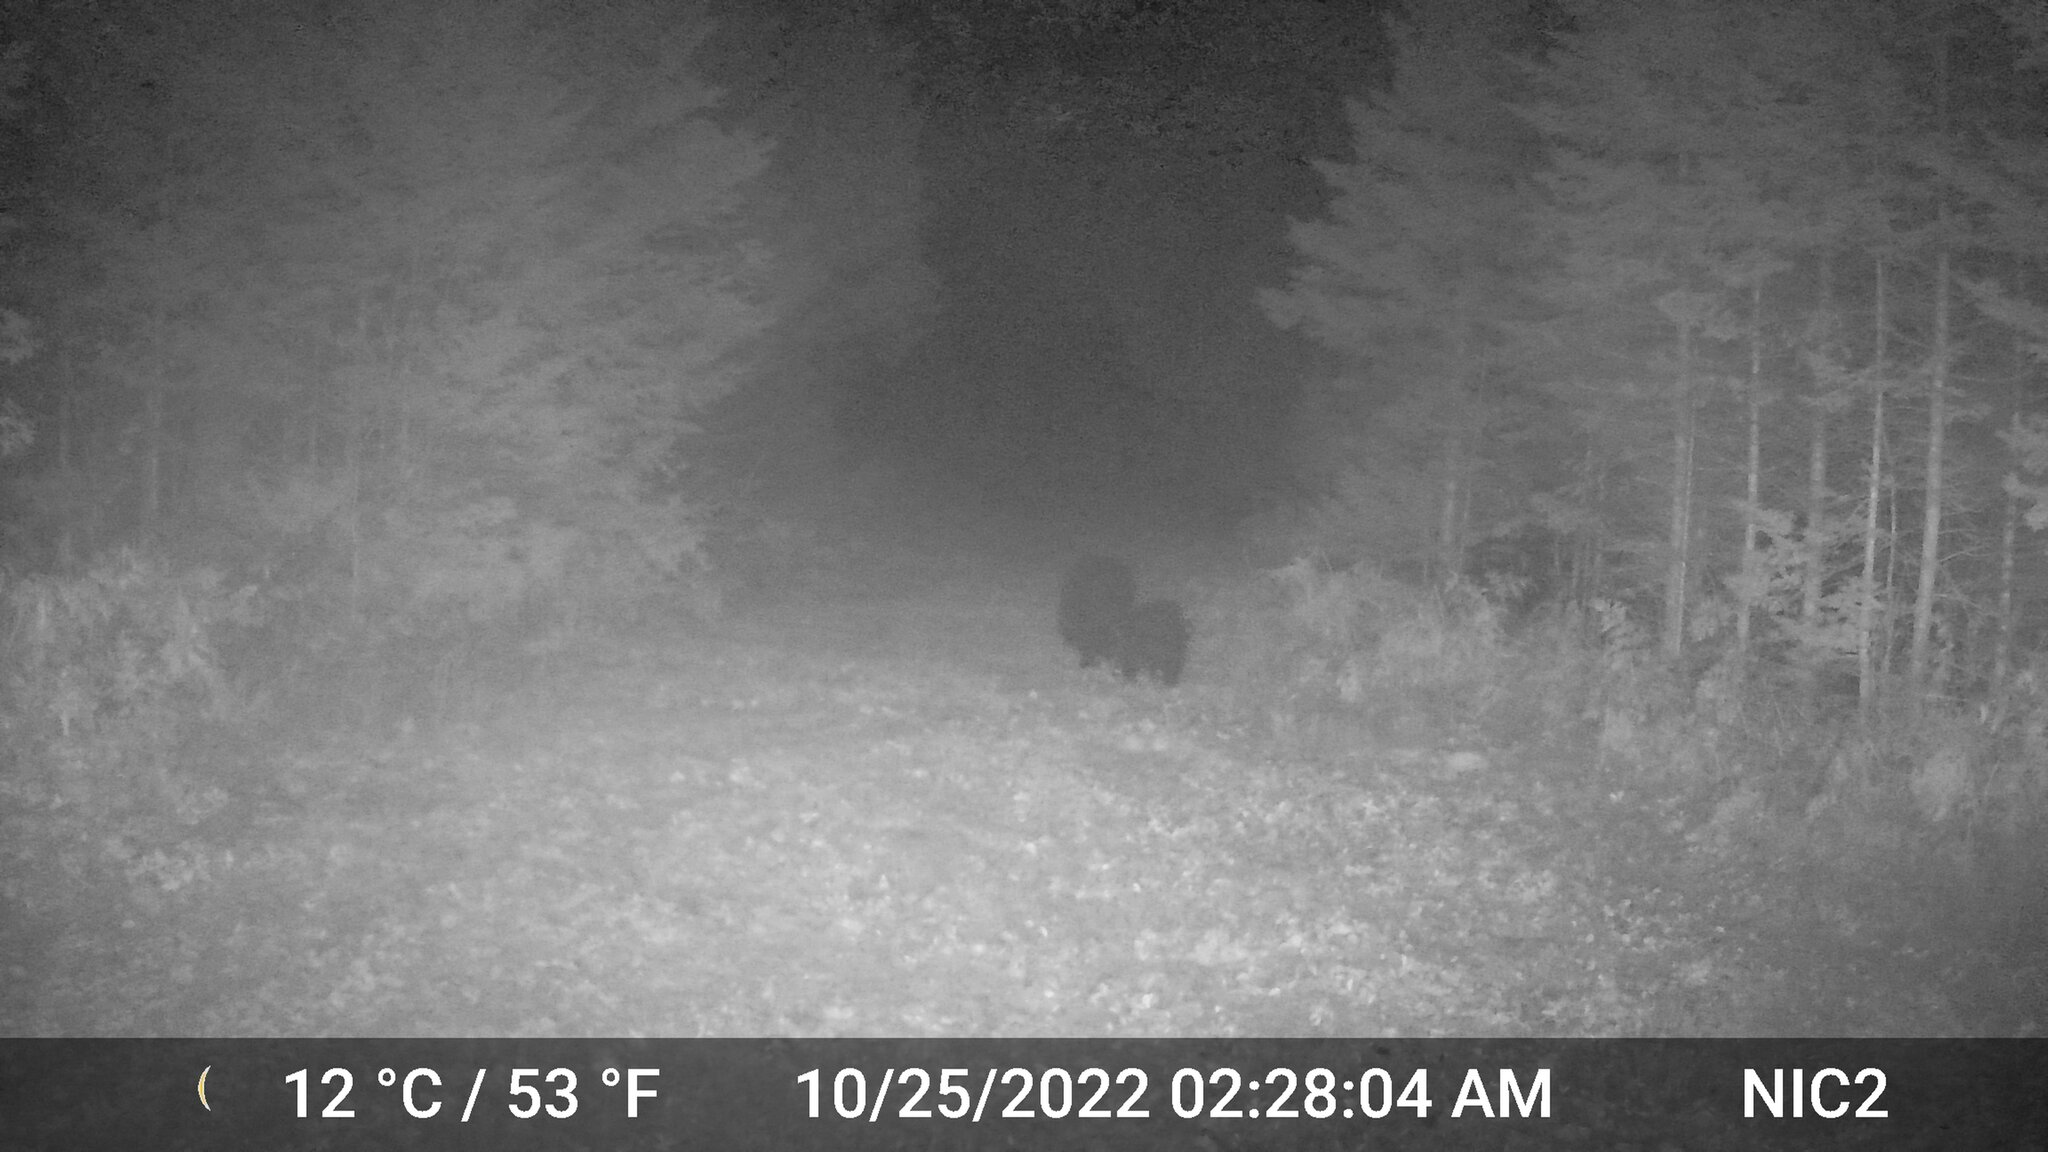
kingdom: Animalia
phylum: Chordata
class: Mammalia
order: Carnivora
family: Ursidae
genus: Ursus
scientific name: Ursus americanus
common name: American black bear
